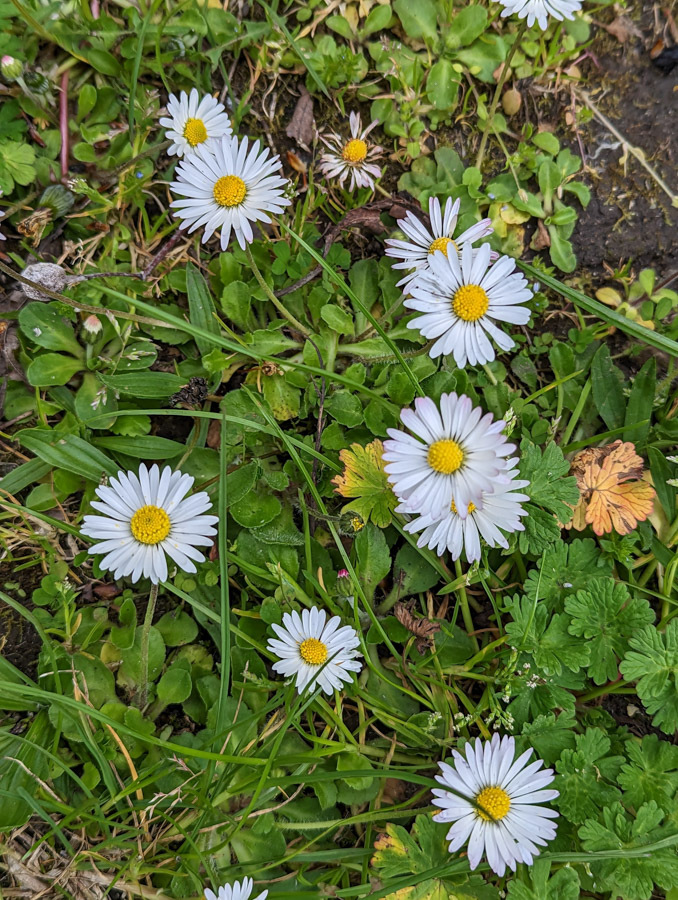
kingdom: Plantae
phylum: Tracheophyta
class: Magnoliopsida
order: Asterales
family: Asteraceae
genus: Bellis
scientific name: Bellis perennis
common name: Lawndaisy
